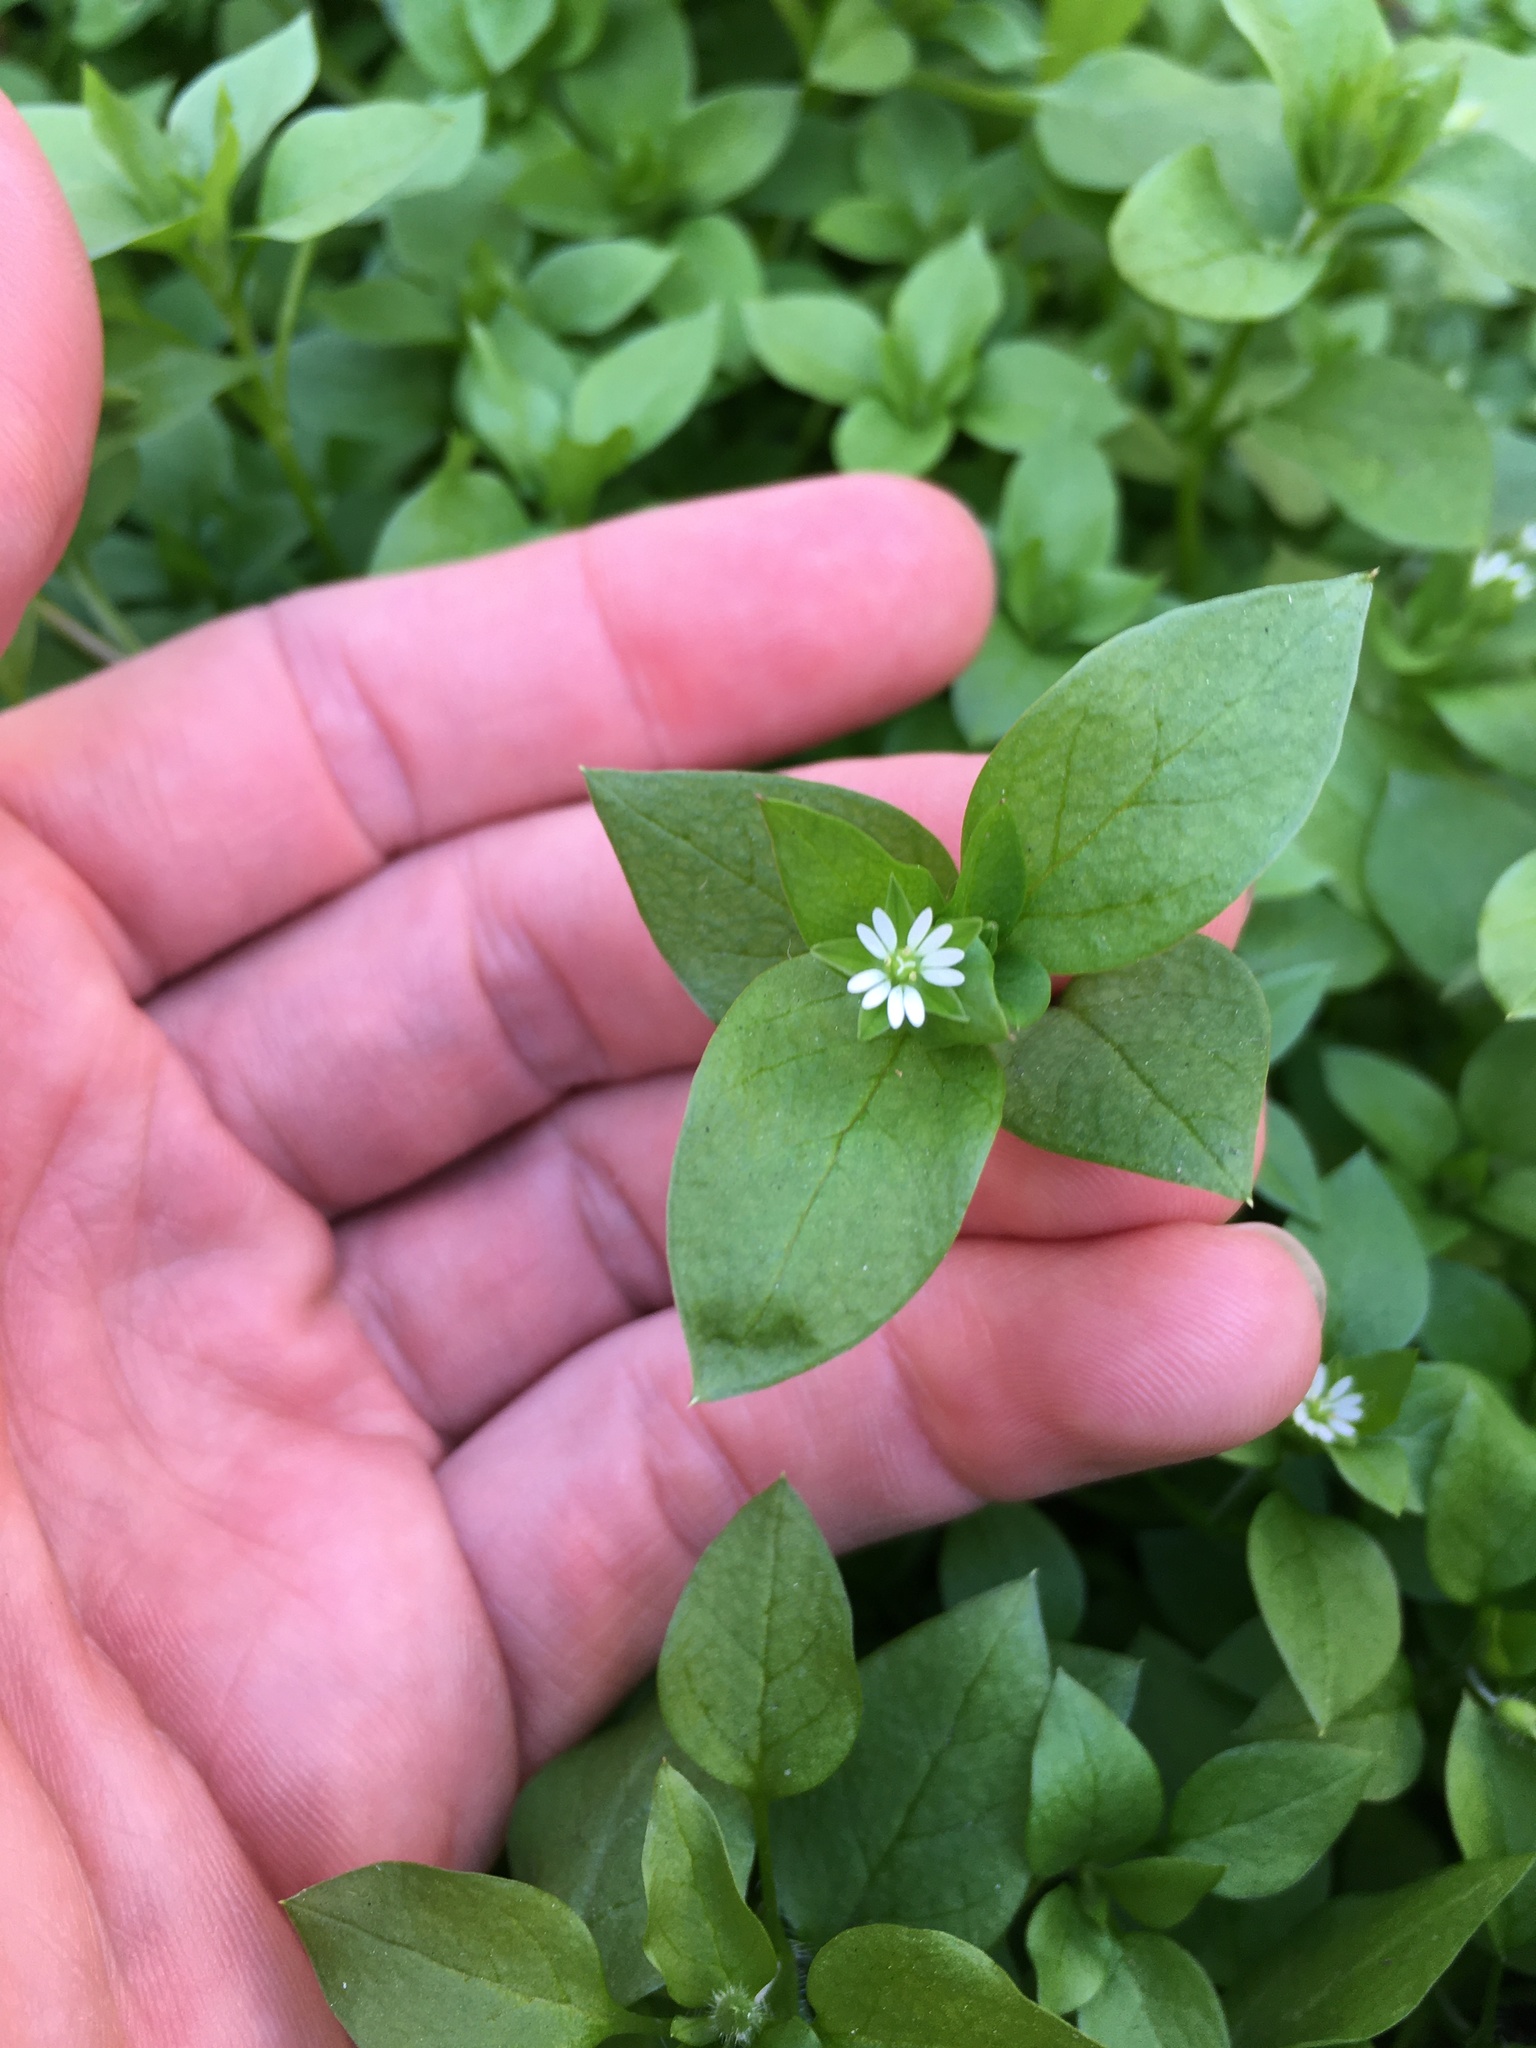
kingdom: Plantae
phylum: Tracheophyta
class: Magnoliopsida
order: Caryophyllales
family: Caryophyllaceae
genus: Stellaria
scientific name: Stellaria media
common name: Common chickweed
